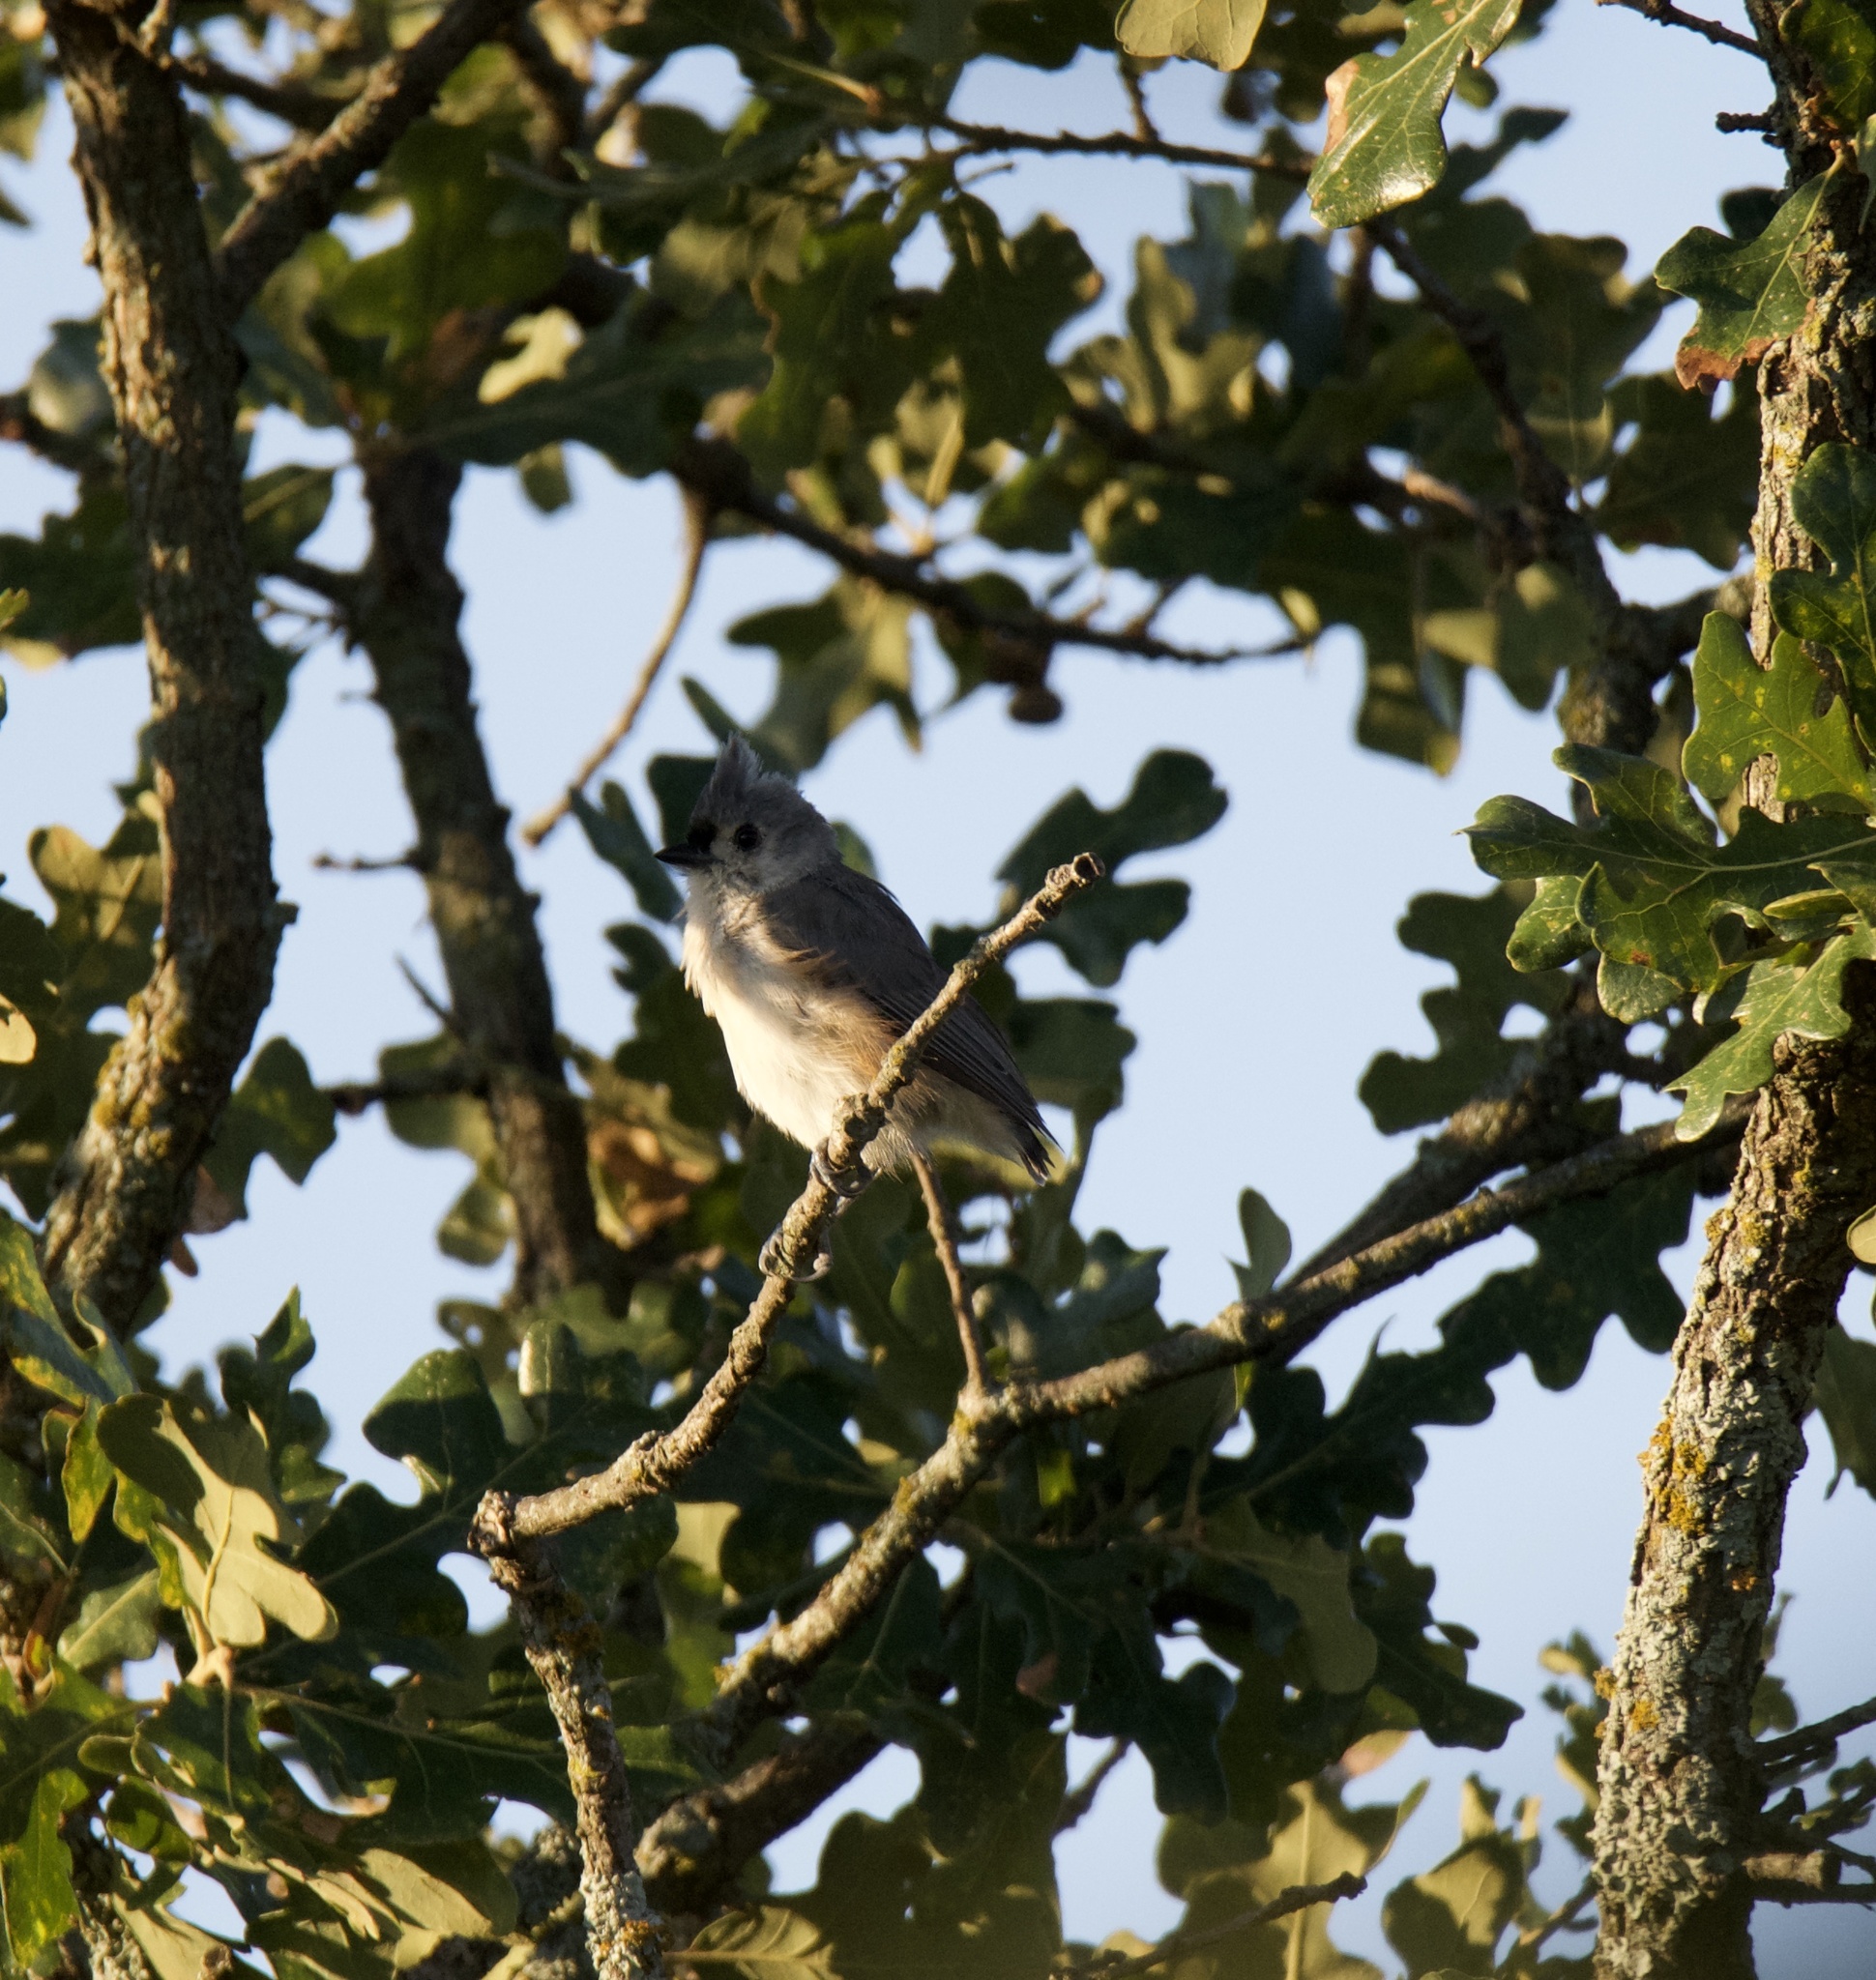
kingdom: Animalia
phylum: Chordata
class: Aves
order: Passeriformes
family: Paridae
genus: Baeolophus
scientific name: Baeolophus bicolor
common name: Tufted titmouse
